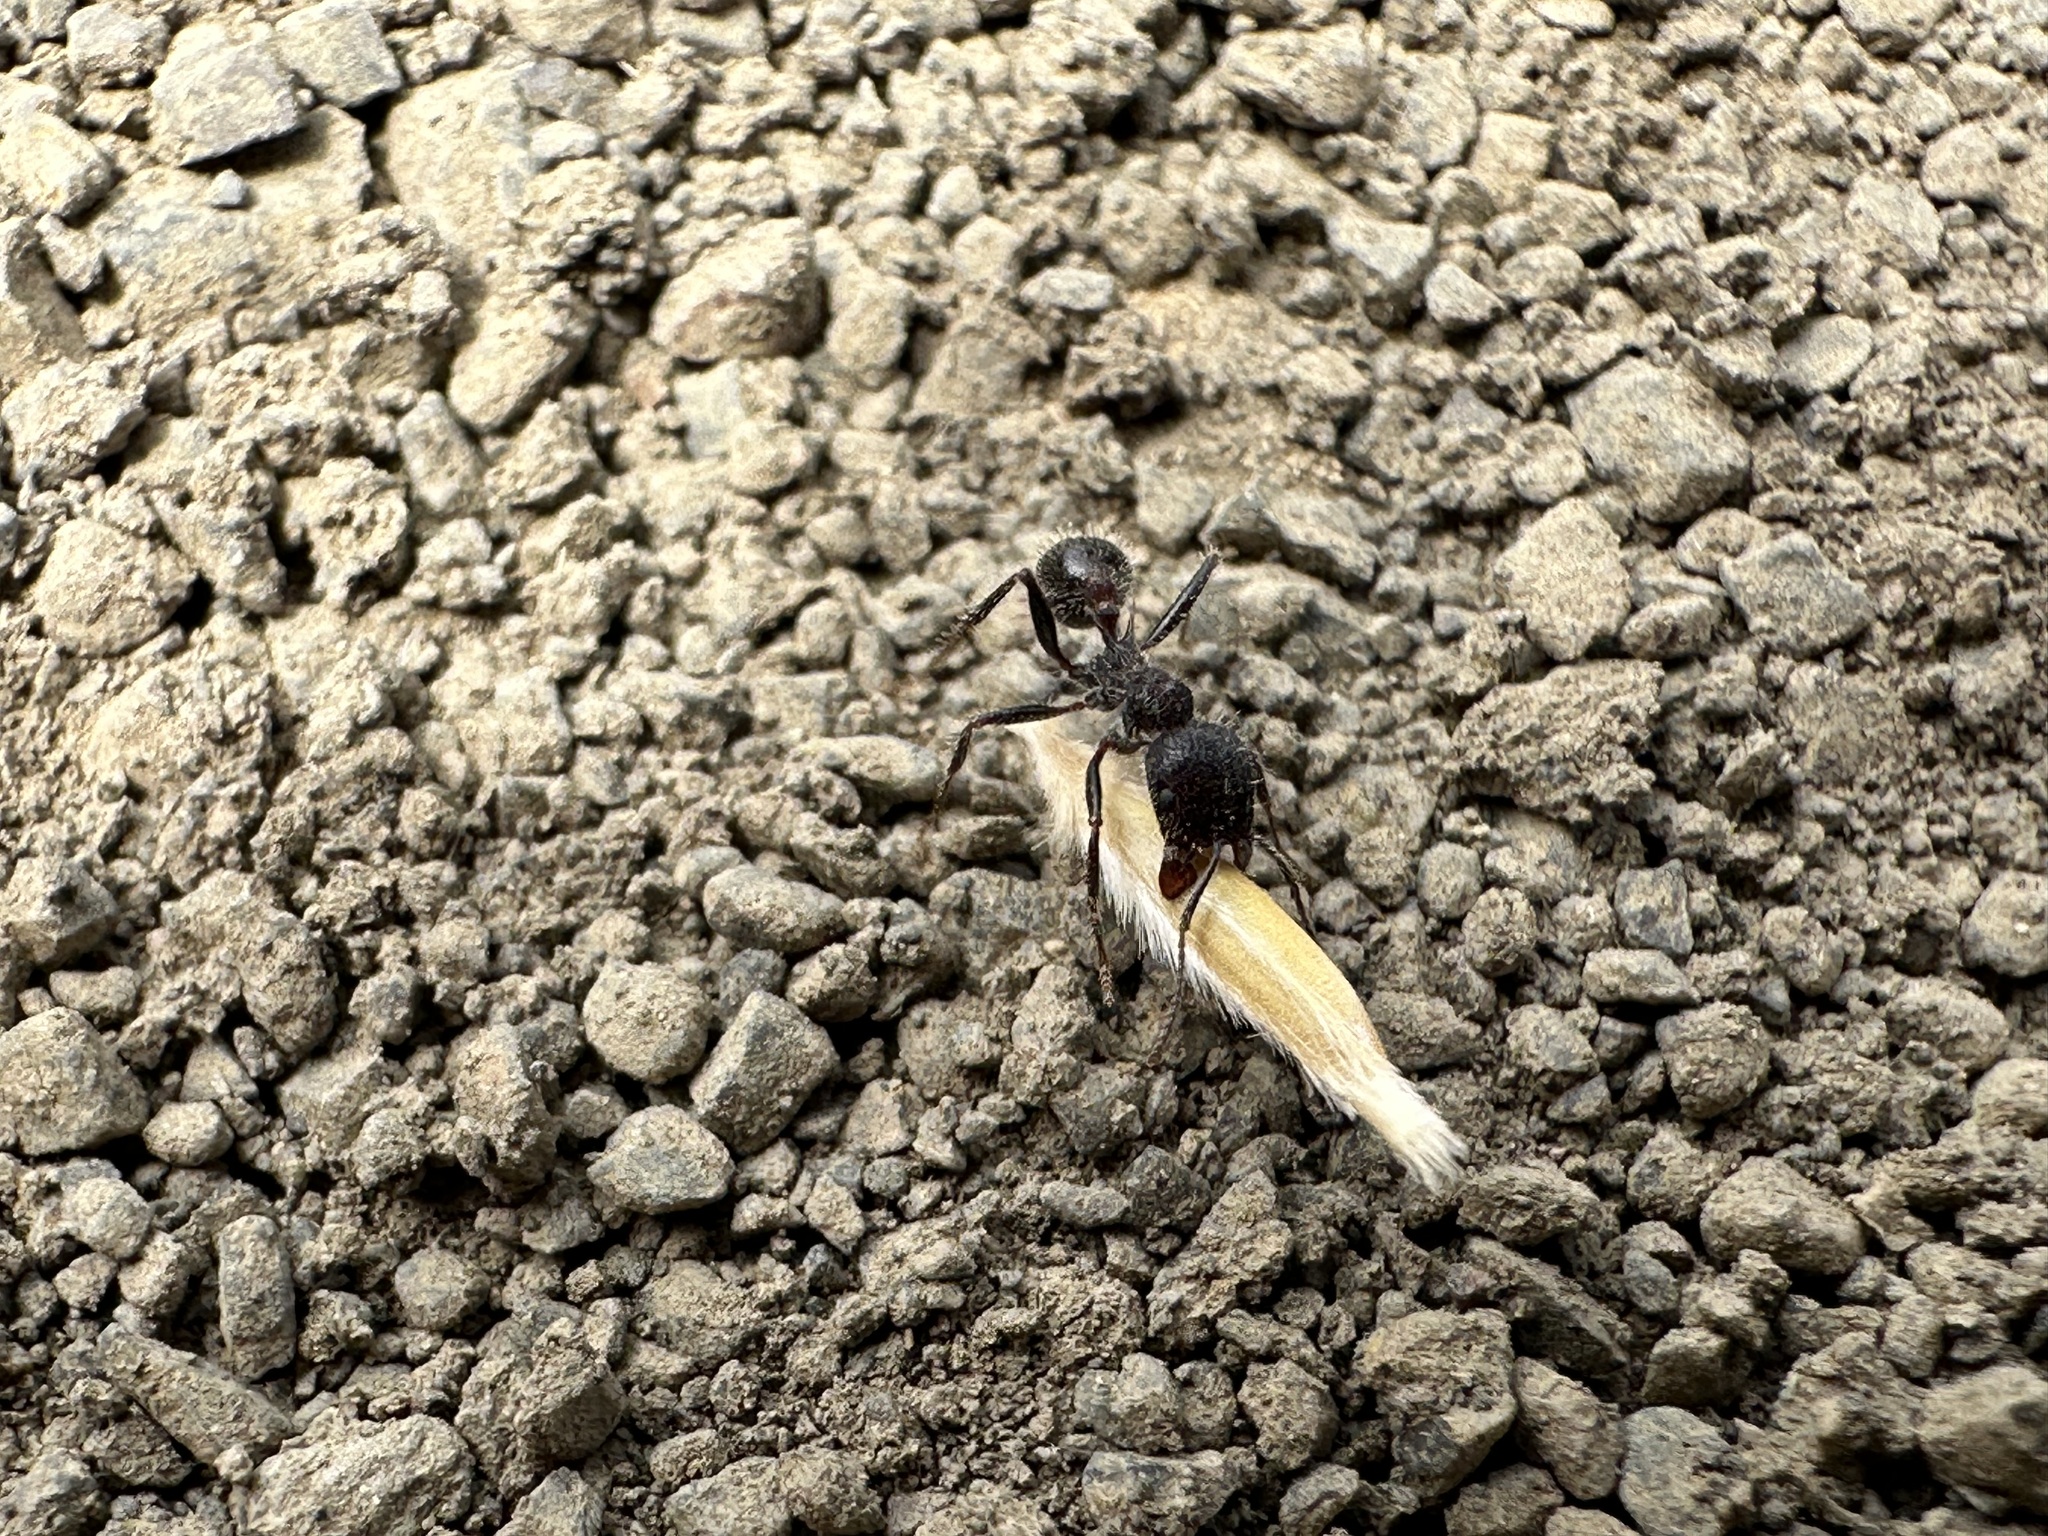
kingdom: Animalia
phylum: Arthropoda
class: Insecta
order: Hymenoptera
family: Formicidae
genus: Veromessor
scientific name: Veromessor andrei
